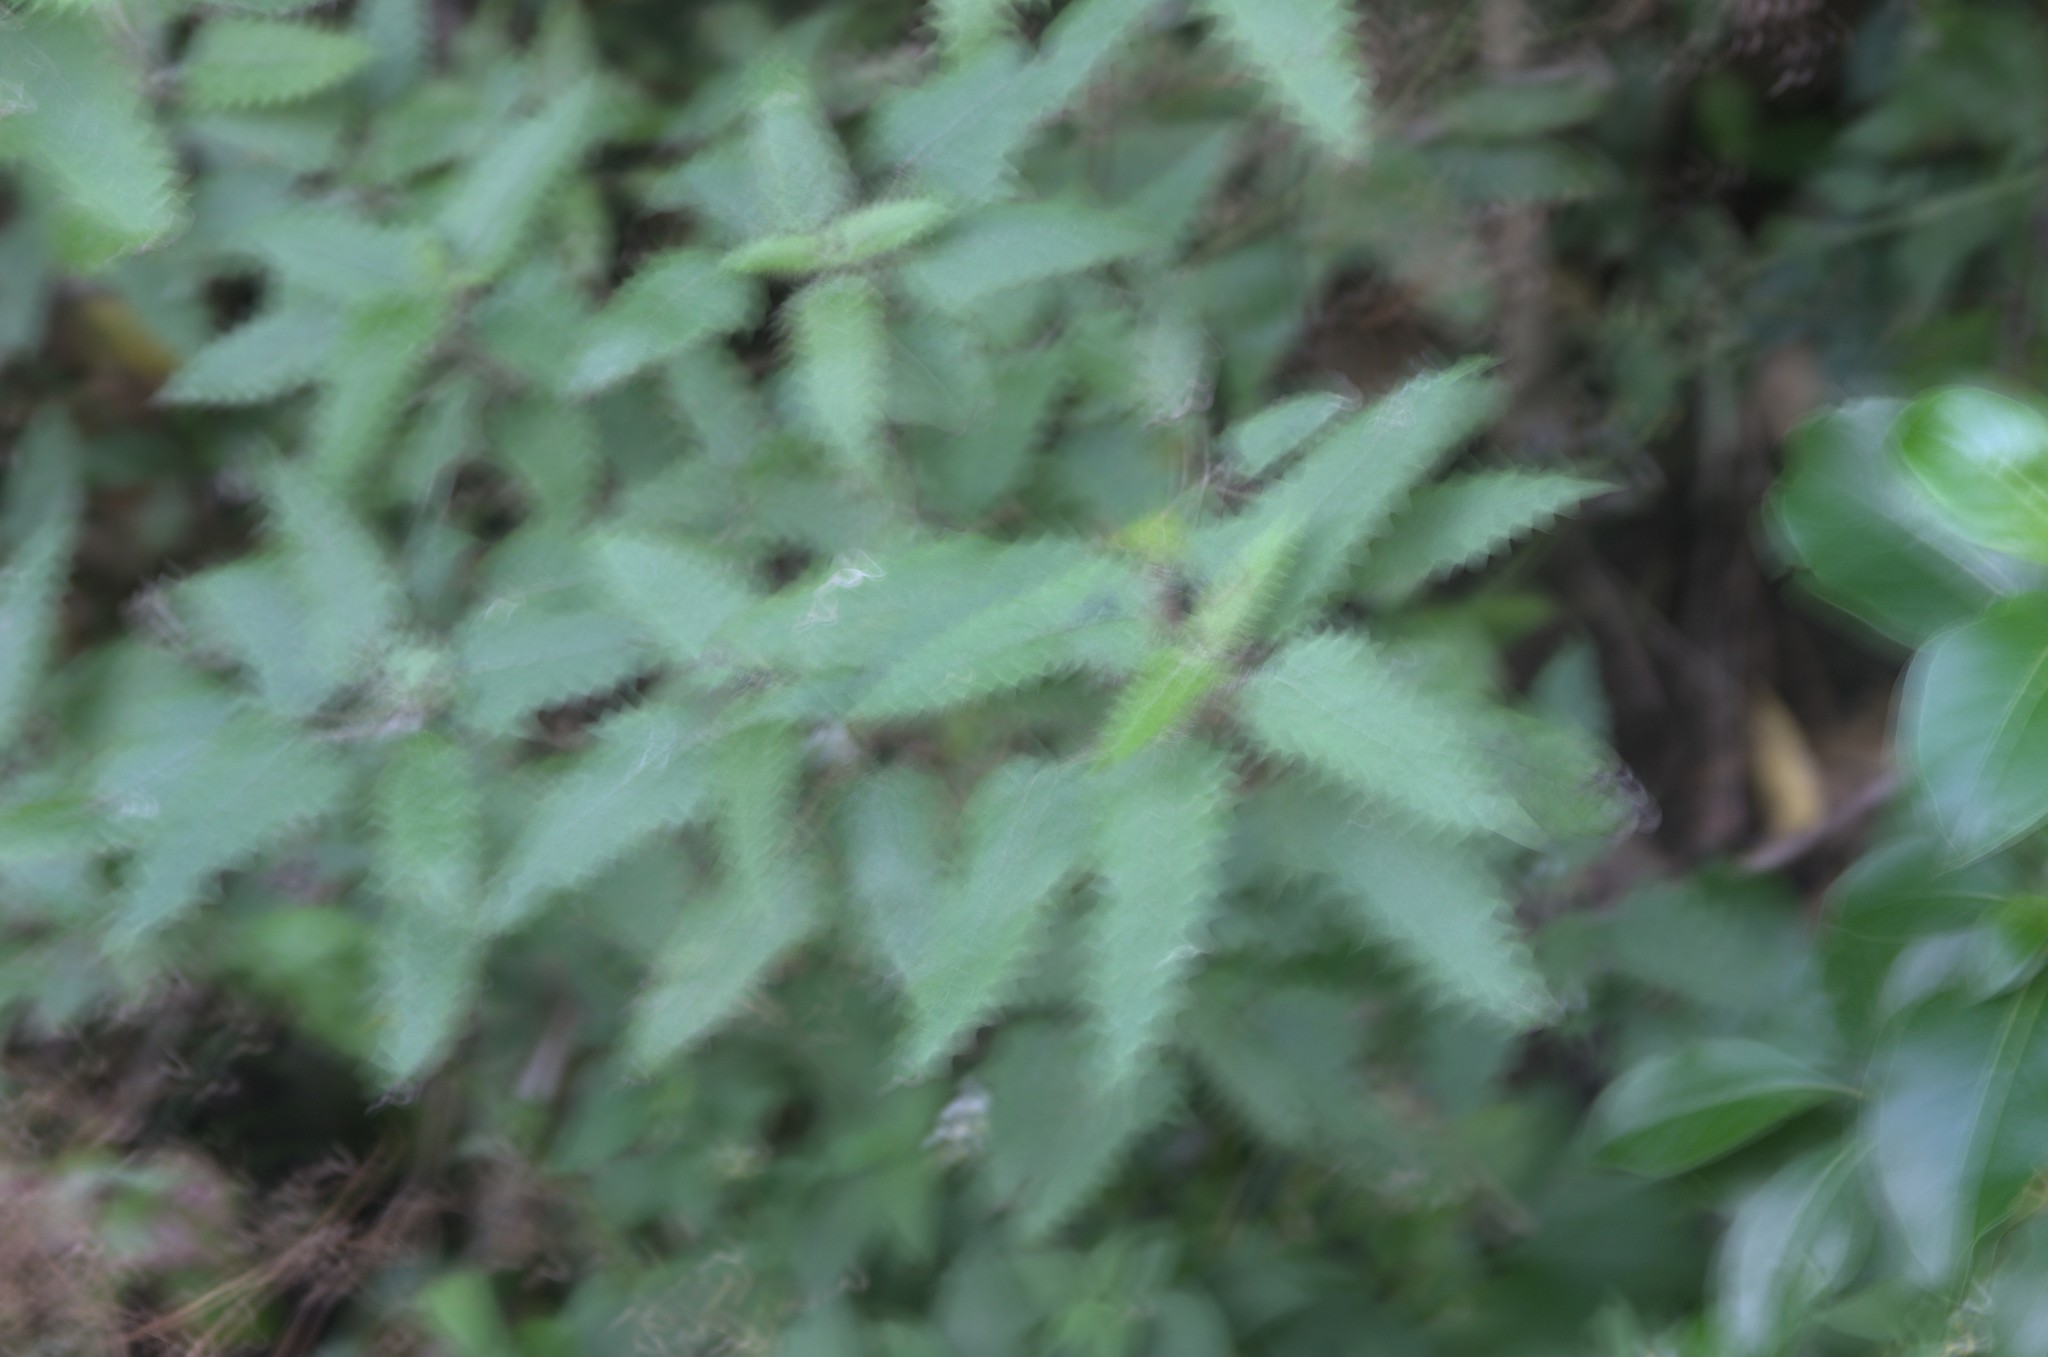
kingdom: Plantae
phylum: Tracheophyta
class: Magnoliopsida
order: Rosales
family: Urticaceae
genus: Urtica
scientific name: Urtica ferox
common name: Tree nettle
